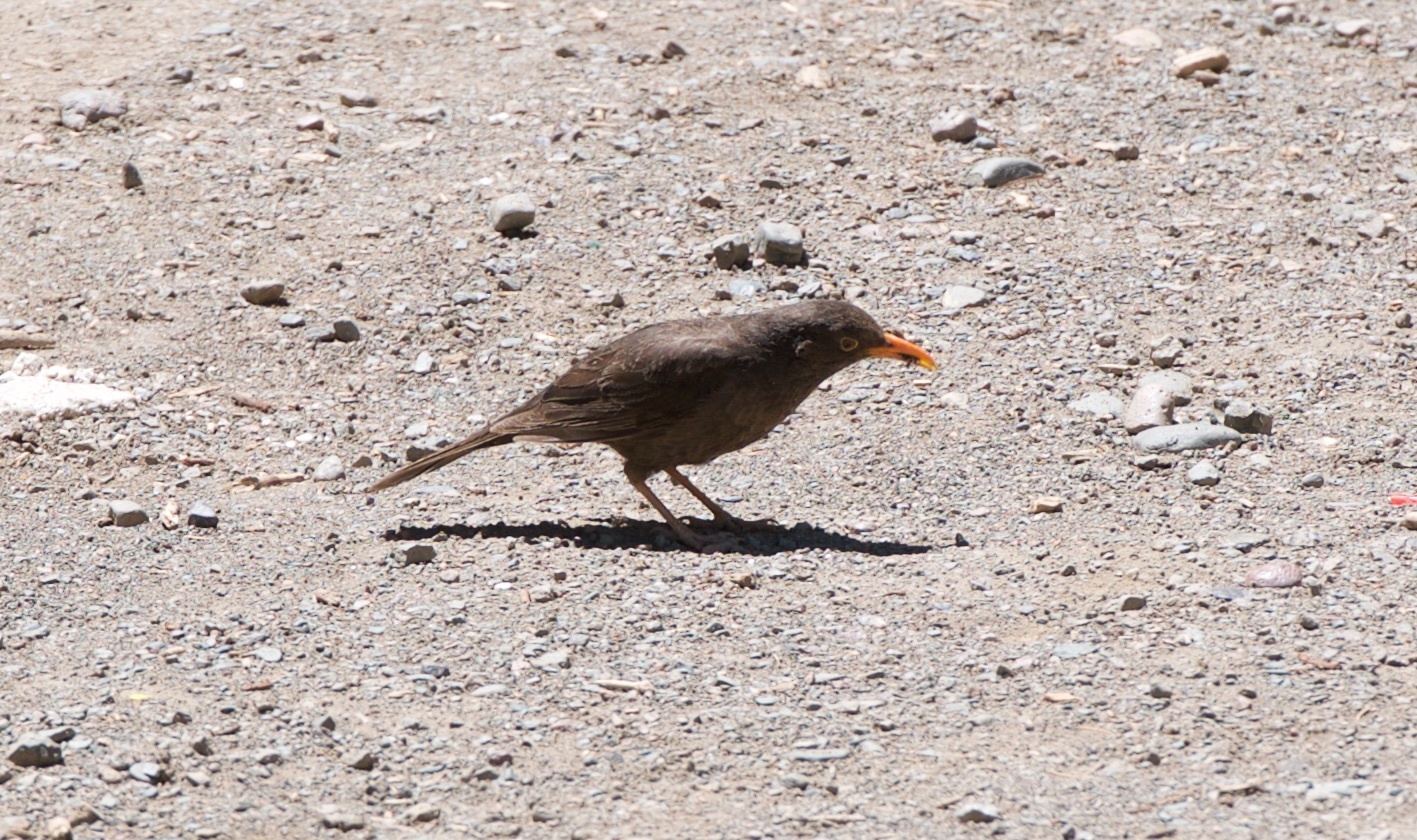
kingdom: Animalia
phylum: Chordata
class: Aves
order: Passeriformes
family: Turdidae
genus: Turdus
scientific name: Turdus chiguanco
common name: Chiguanco thrush
